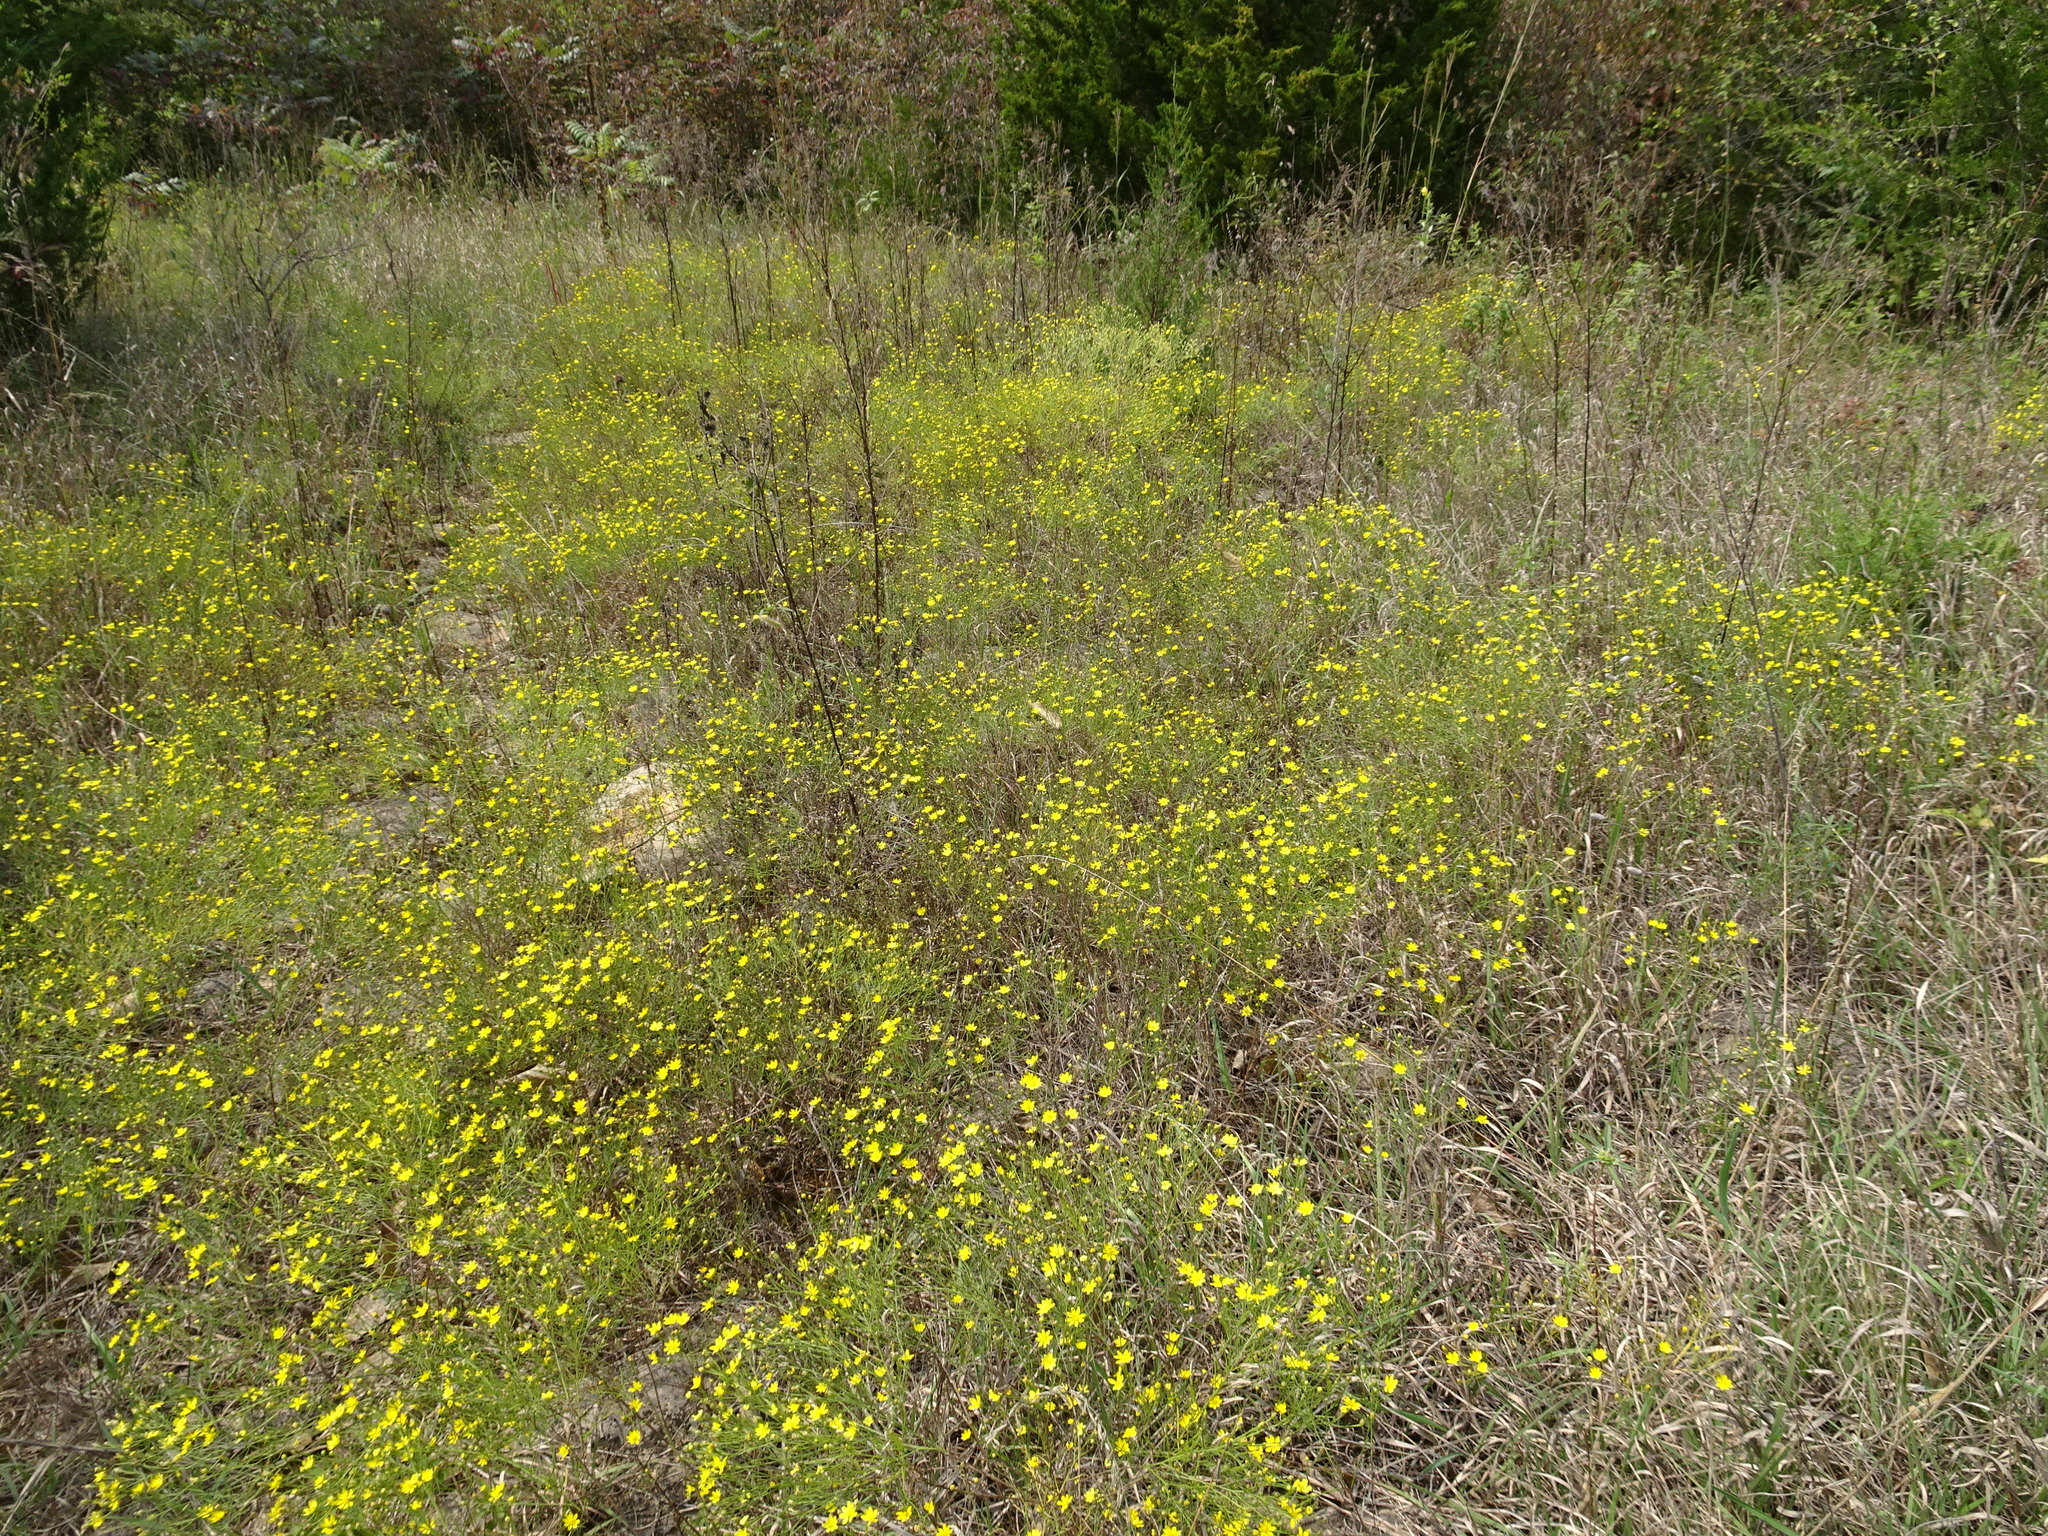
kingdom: Plantae
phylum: Tracheophyta
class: Magnoliopsida
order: Asterales
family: Asteraceae
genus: Amphiachyris
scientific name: Amphiachyris dracunculoides
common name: Broomweed
